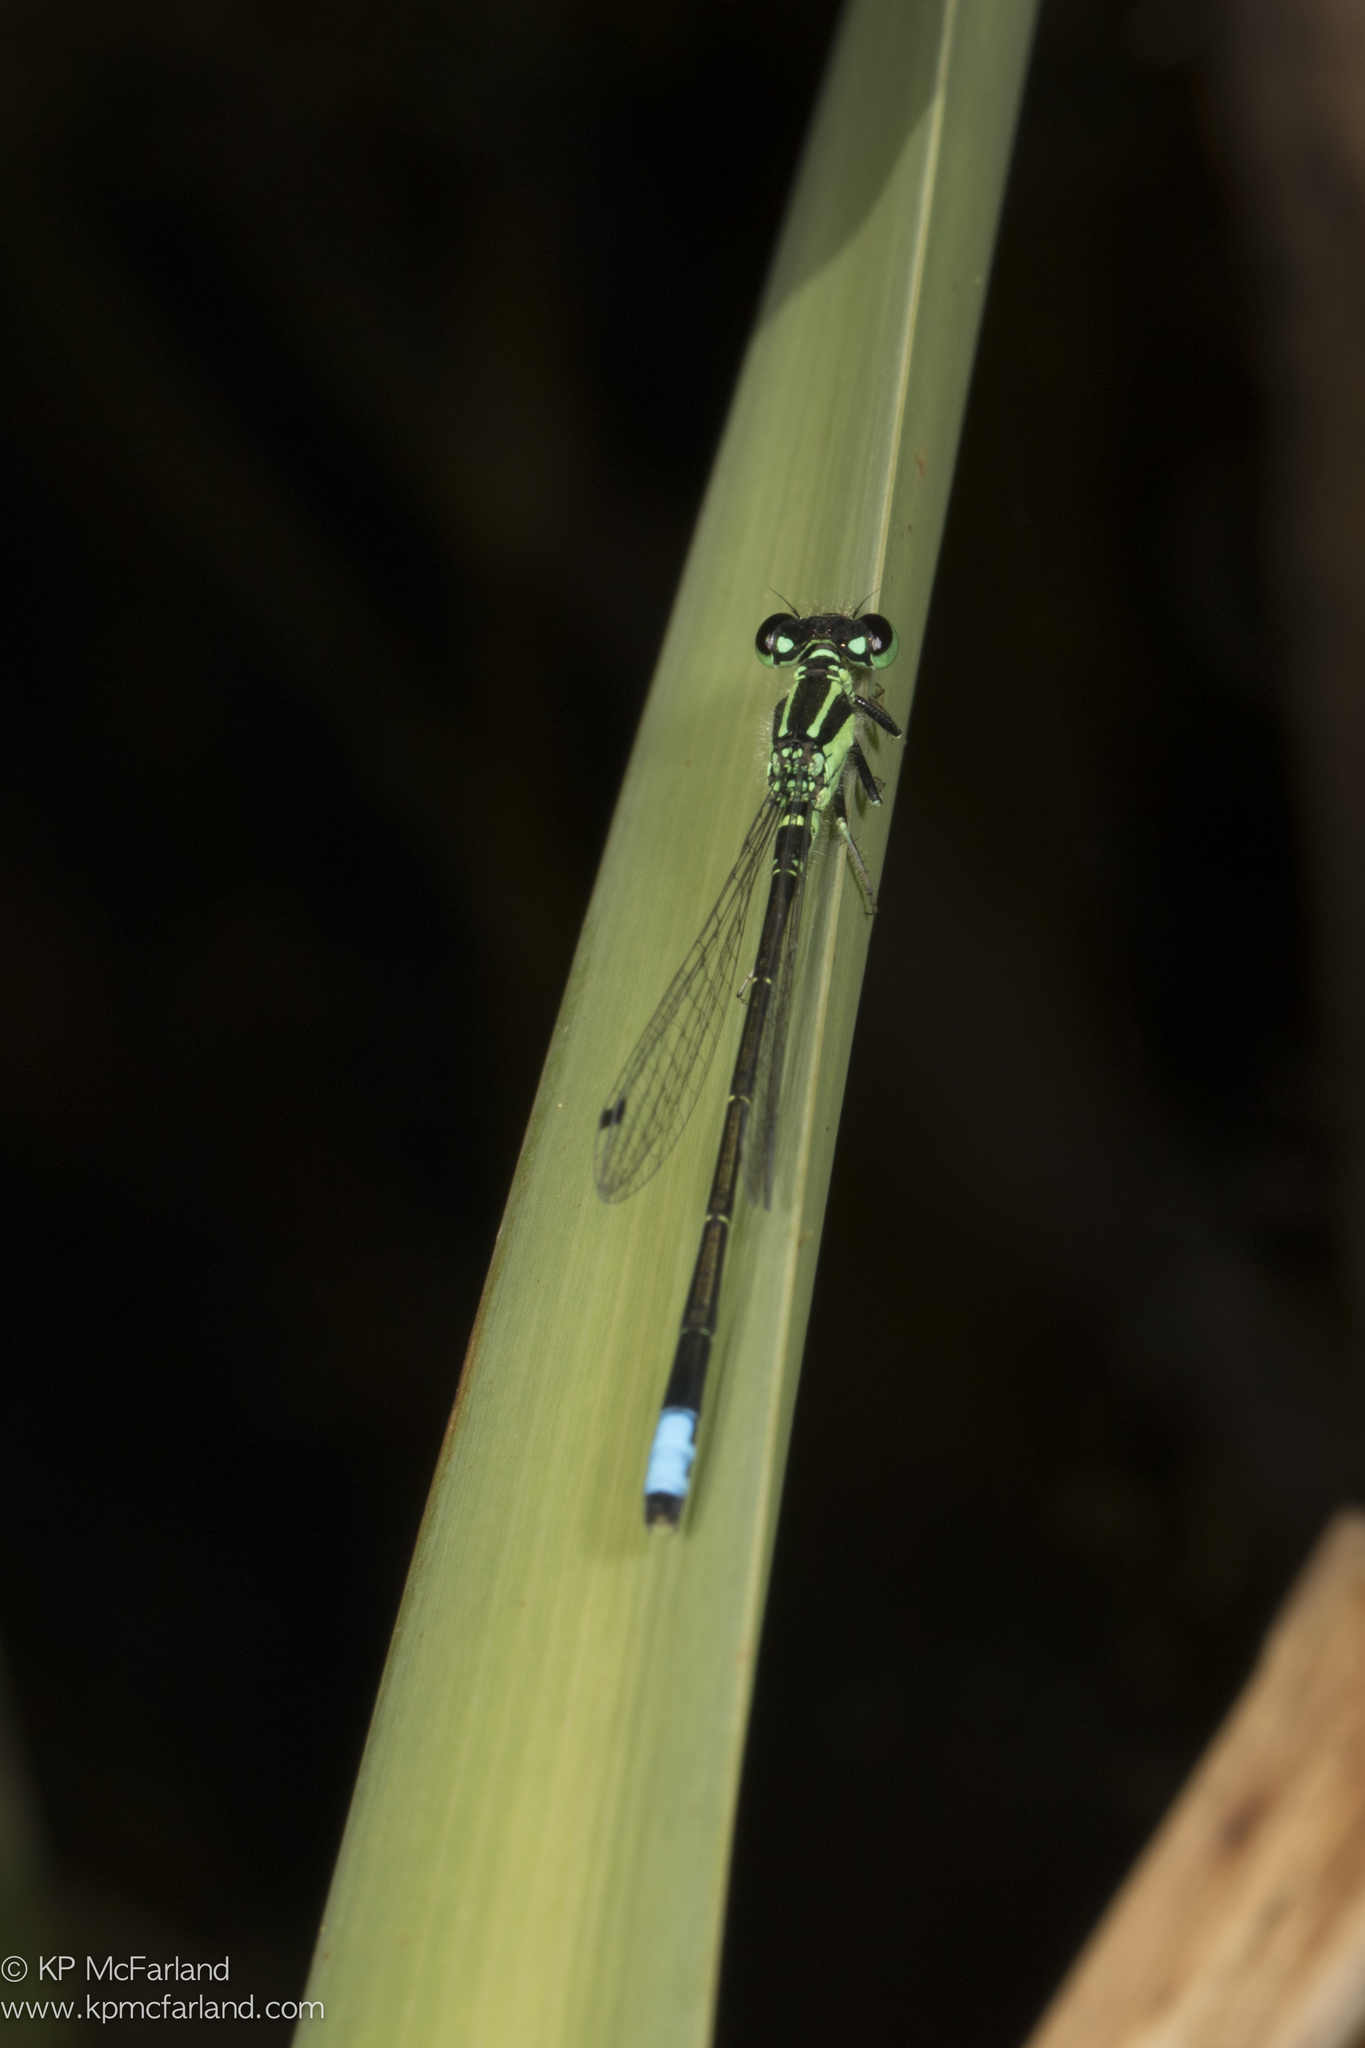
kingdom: Animalia
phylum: Arthropoda
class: Insecta
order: Odonata
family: Coenagrionidae
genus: Ischnura
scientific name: Ischnura verticalis
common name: Eastern forktail
